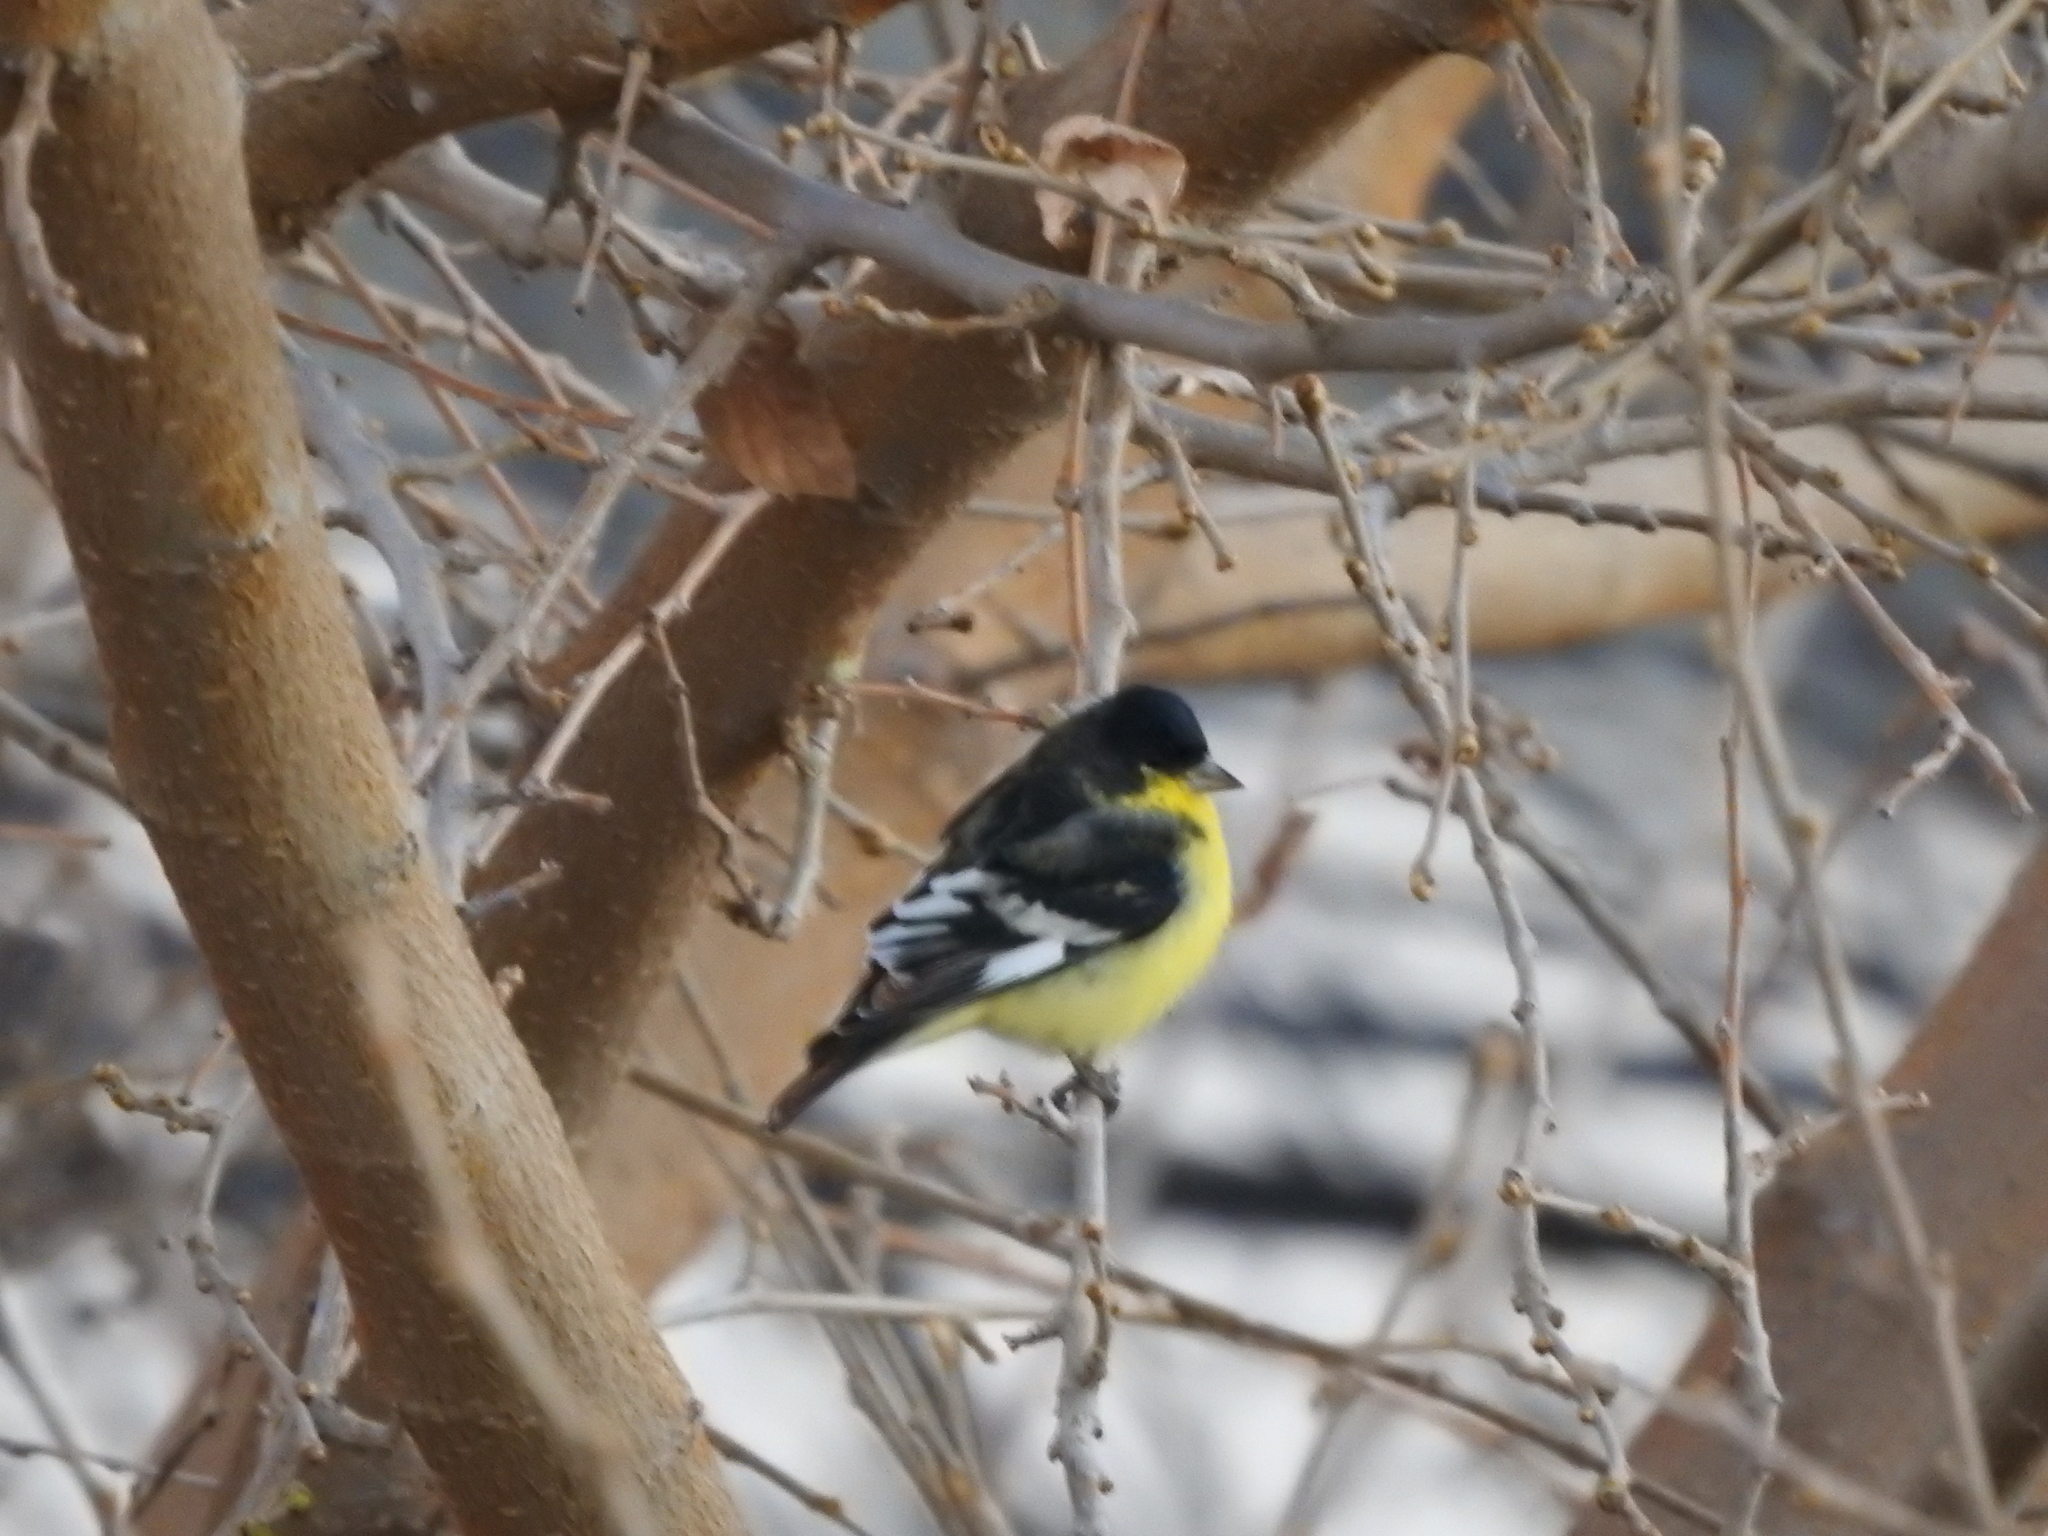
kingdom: Animalia
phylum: Chordata
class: Aves
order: Passeriformes
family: Fringillidae
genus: Spinus
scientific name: Spinus psaltria
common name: Lesser goldfinch
